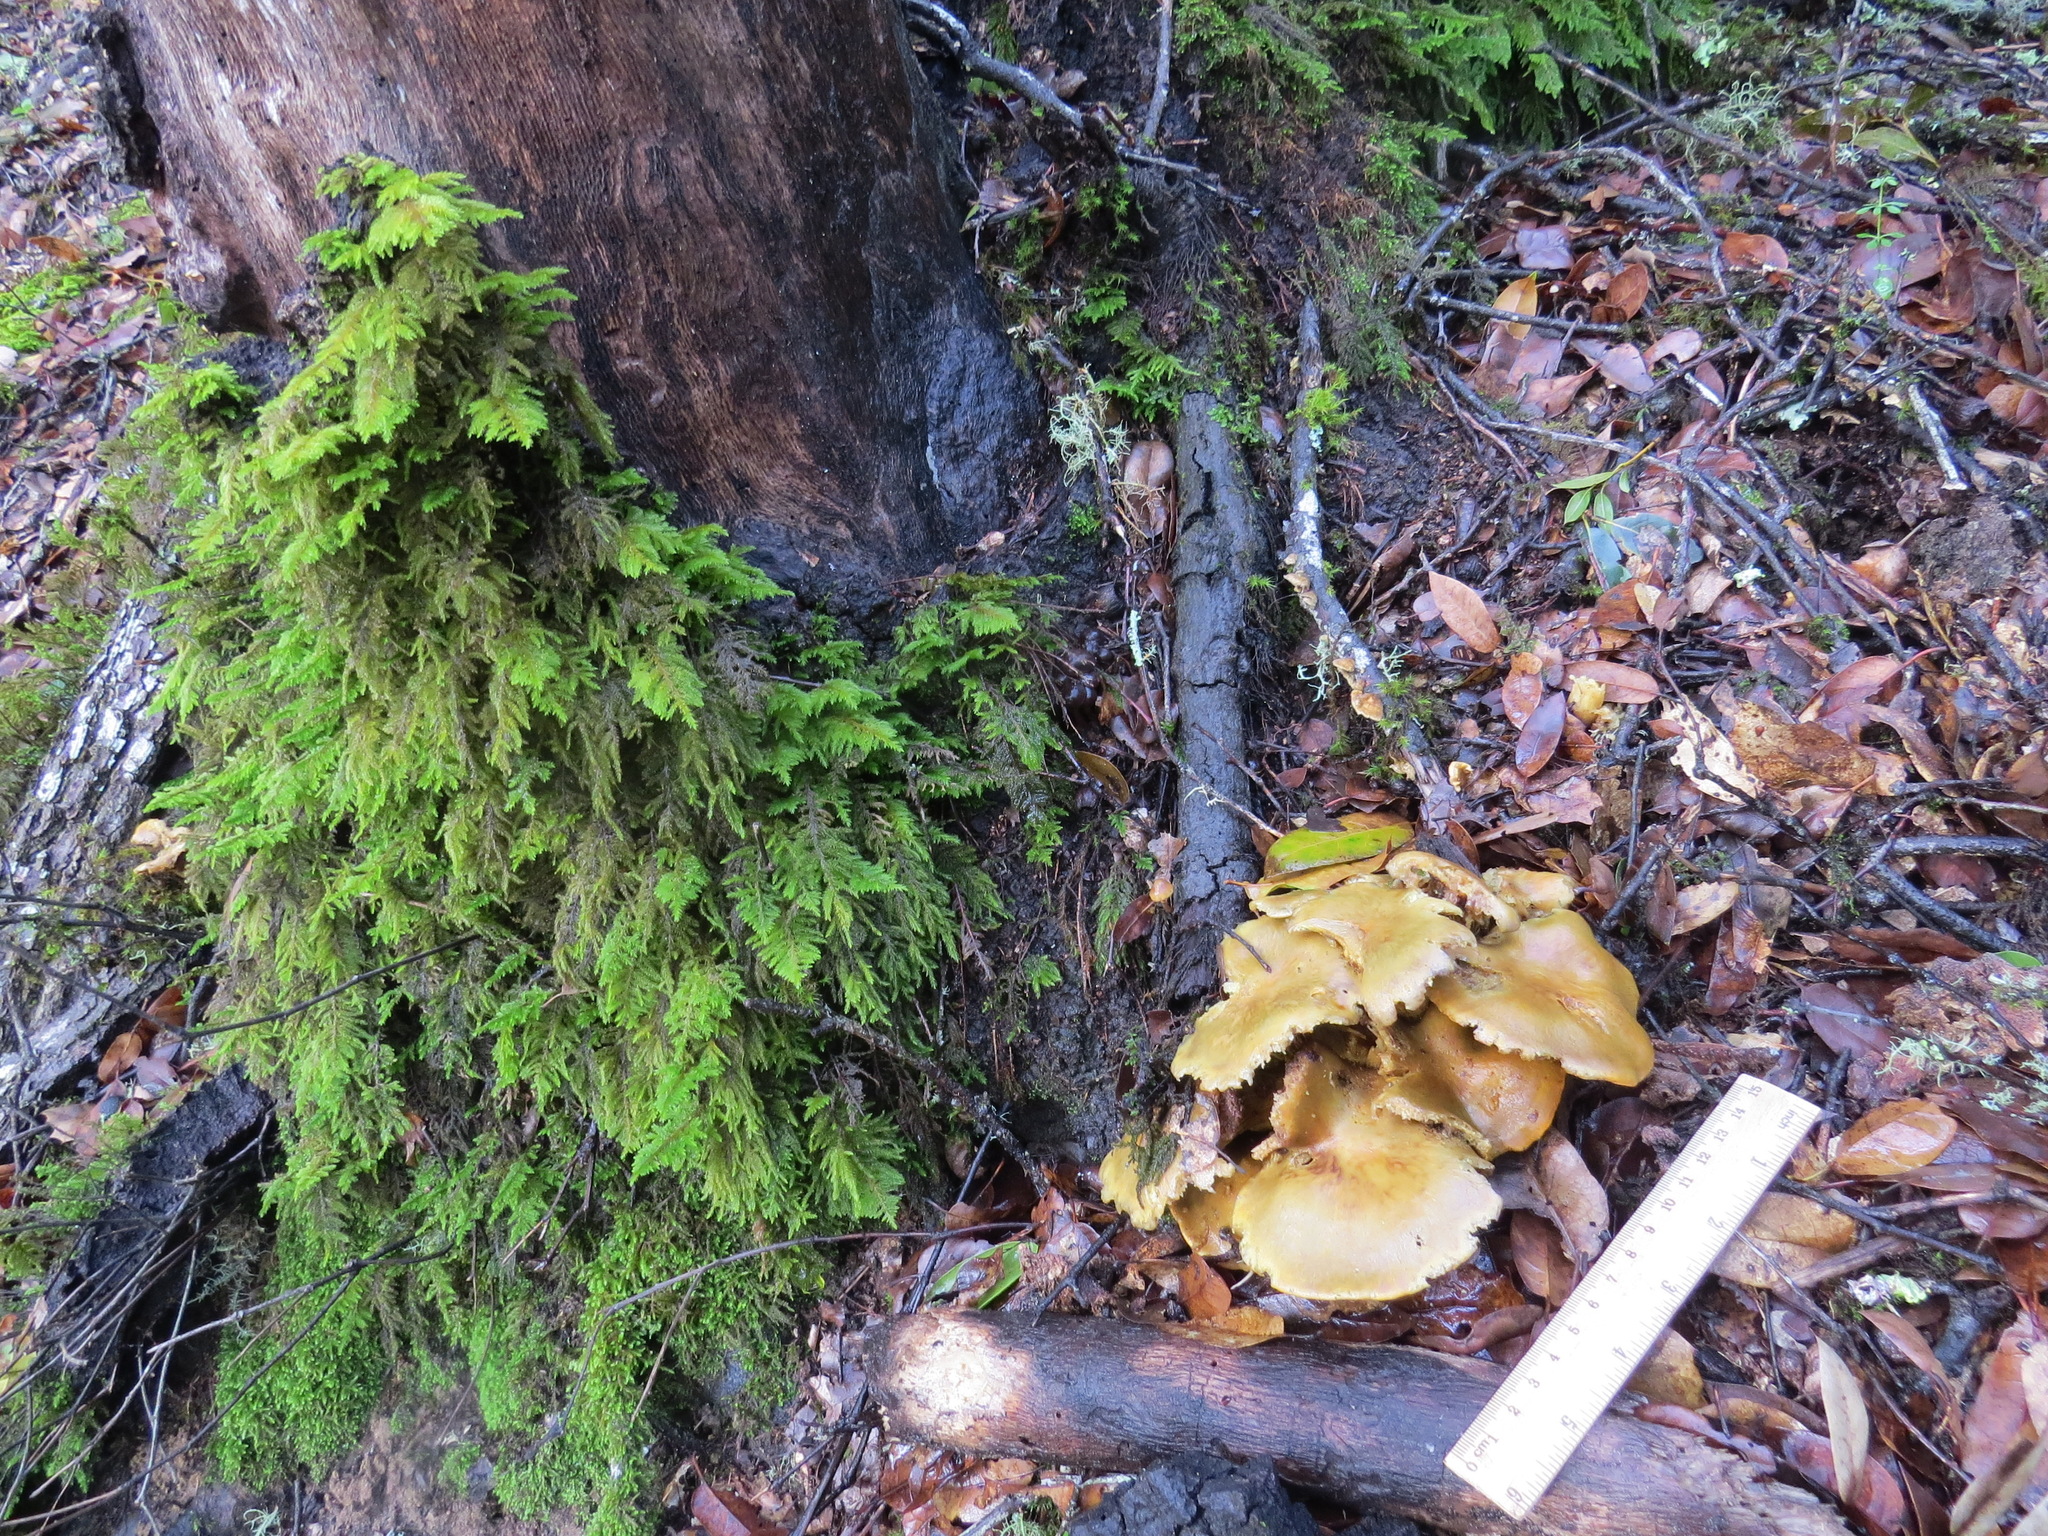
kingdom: Fungi
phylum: Basidiomycota
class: Agaricomycetes
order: Agaricales
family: Omphalotaceae
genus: Omphalotus
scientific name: Omphalotus olivascens
